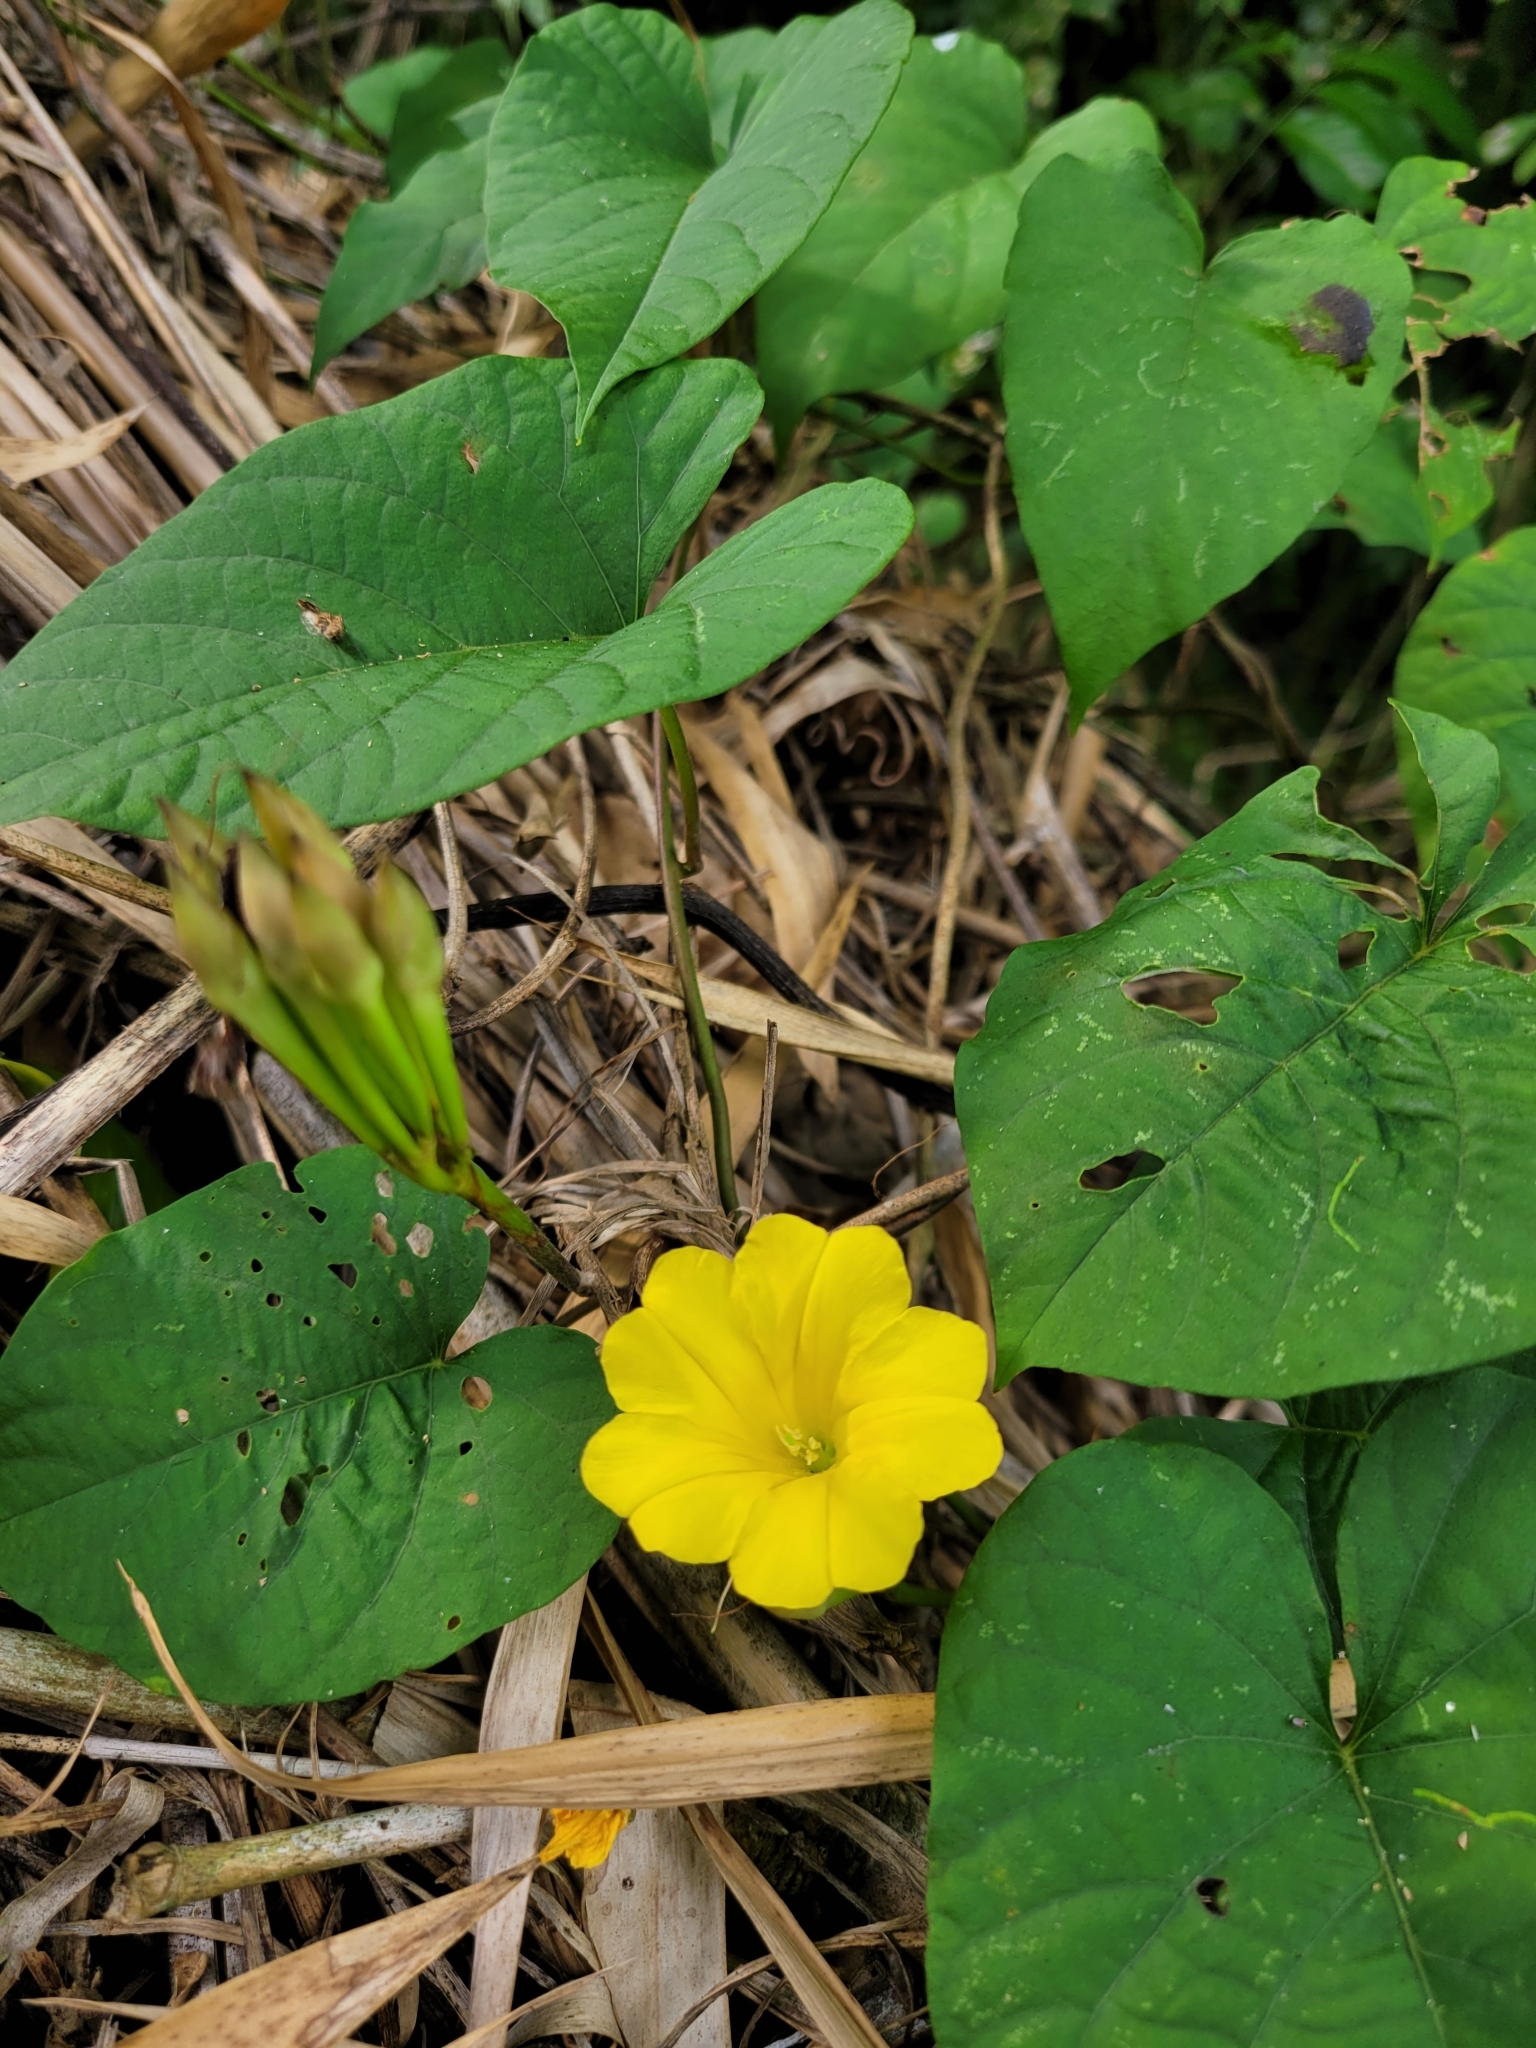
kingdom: Plantae
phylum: Tracheophyta
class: Magnoliopsida
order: Solanales
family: Convolvulaceae
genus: Camonea
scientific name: Camonea umbellata
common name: Hogvine
